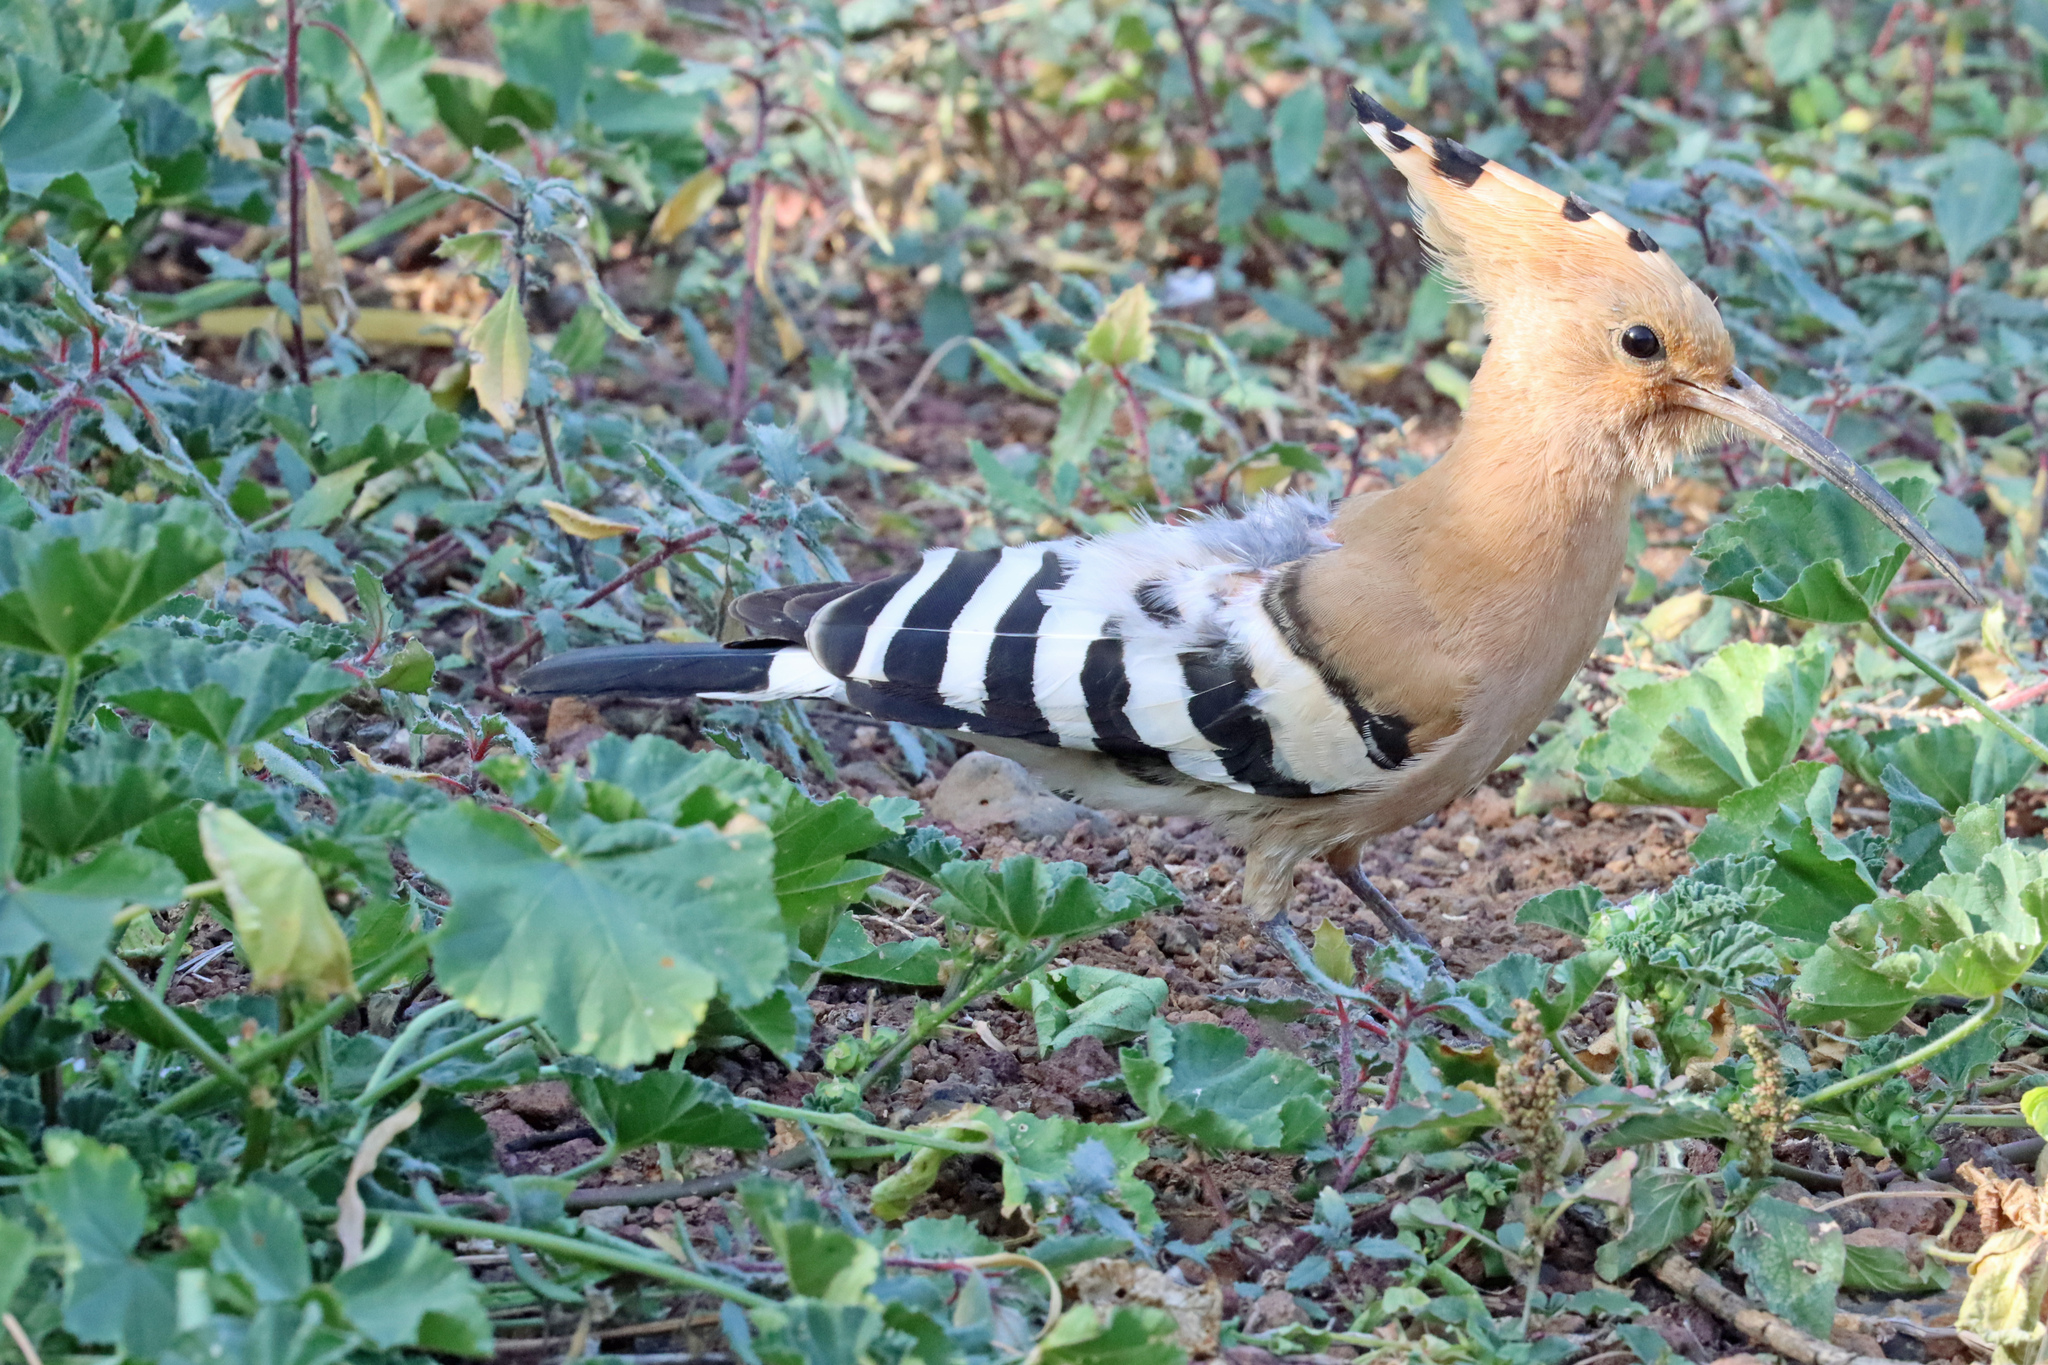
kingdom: Animalia
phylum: Chordata
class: Aves
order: Bucerotiformes
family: Upupidae
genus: Upupa
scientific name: Upupa epops
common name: Eurasian hoopoe
